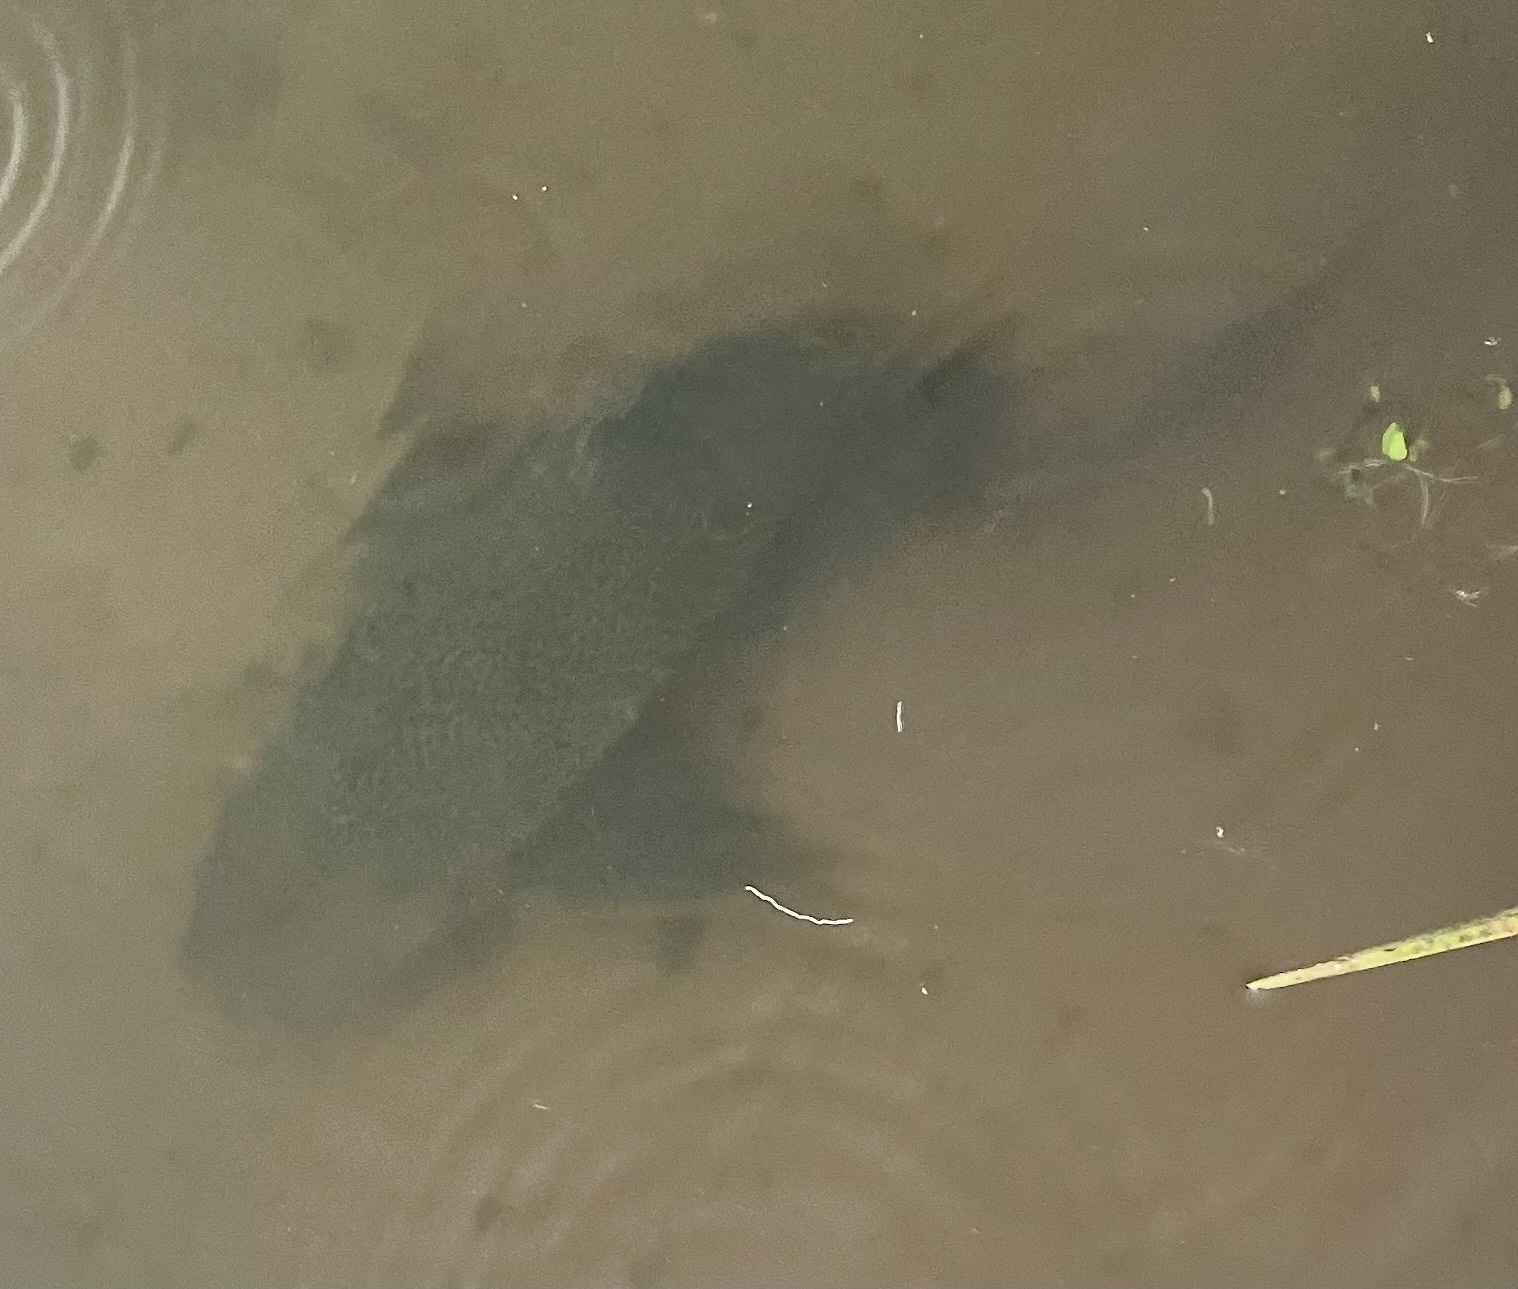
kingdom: Animalia
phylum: Chordata
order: Siluriformes
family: Loricariidae
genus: Pterygoplichthys
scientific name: Pterygoplichthys
